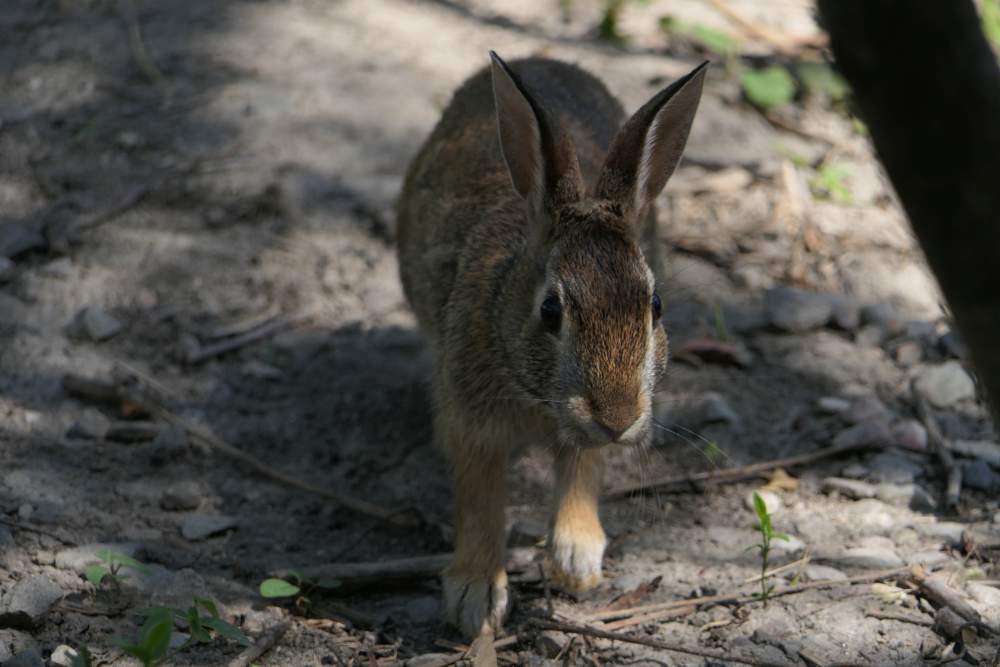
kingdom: Animalia
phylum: Chordata
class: Mammalia
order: Lagomorpha
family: Leporidae
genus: Sylvilagus
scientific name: Sylvilagus floridanus
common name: Eastern cottontail
